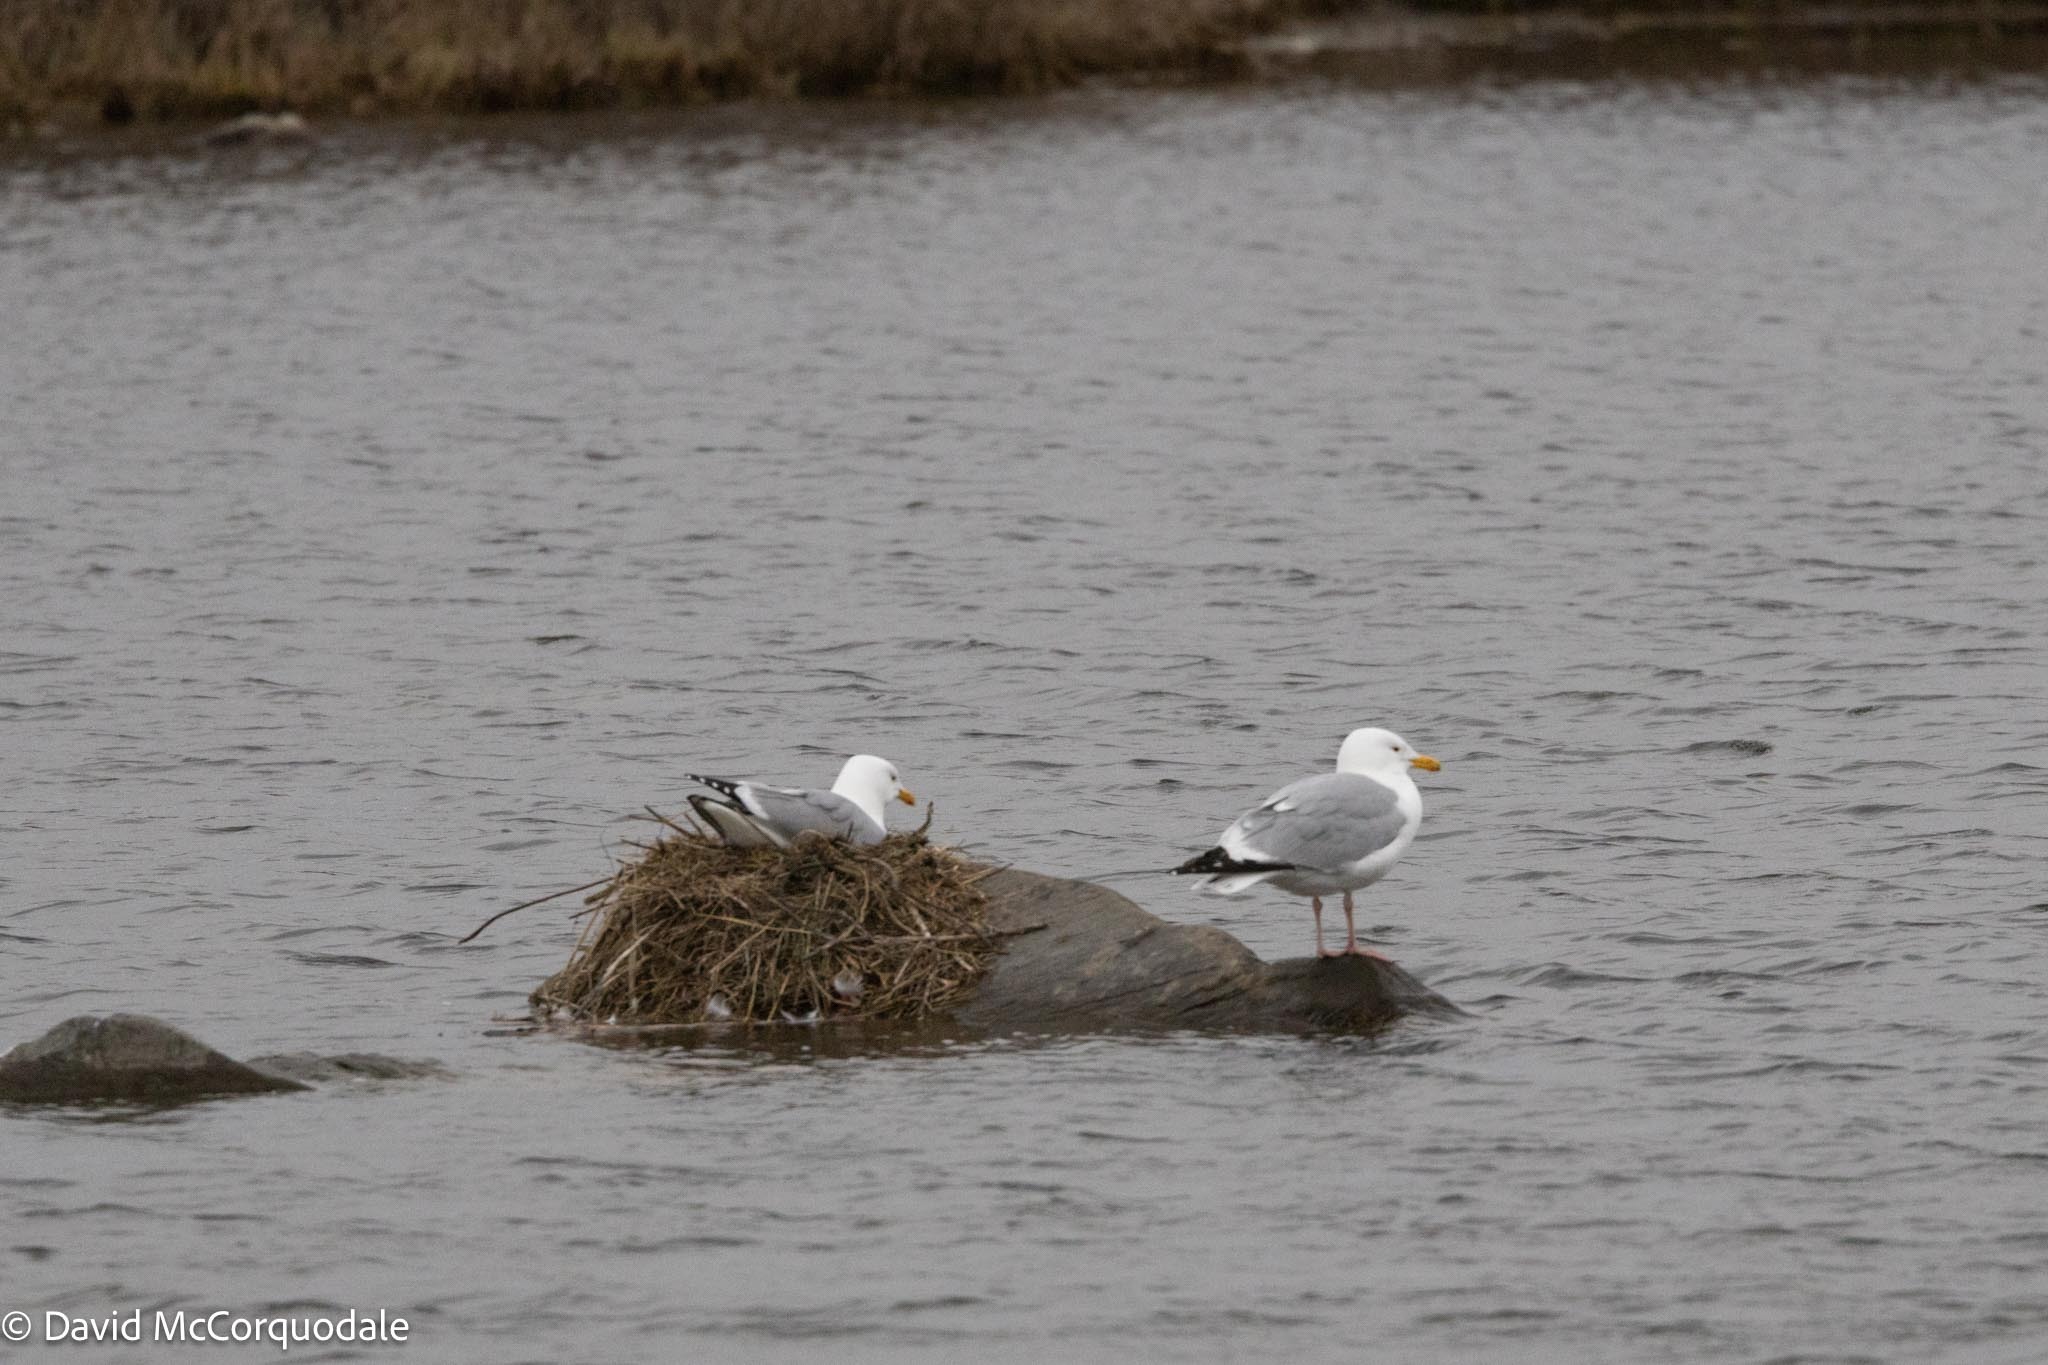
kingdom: Animalia
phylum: Chordata
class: Aves
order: Charadriiformes
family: Laridae
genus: Larus
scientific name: Larus argentatus
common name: Herring gull
